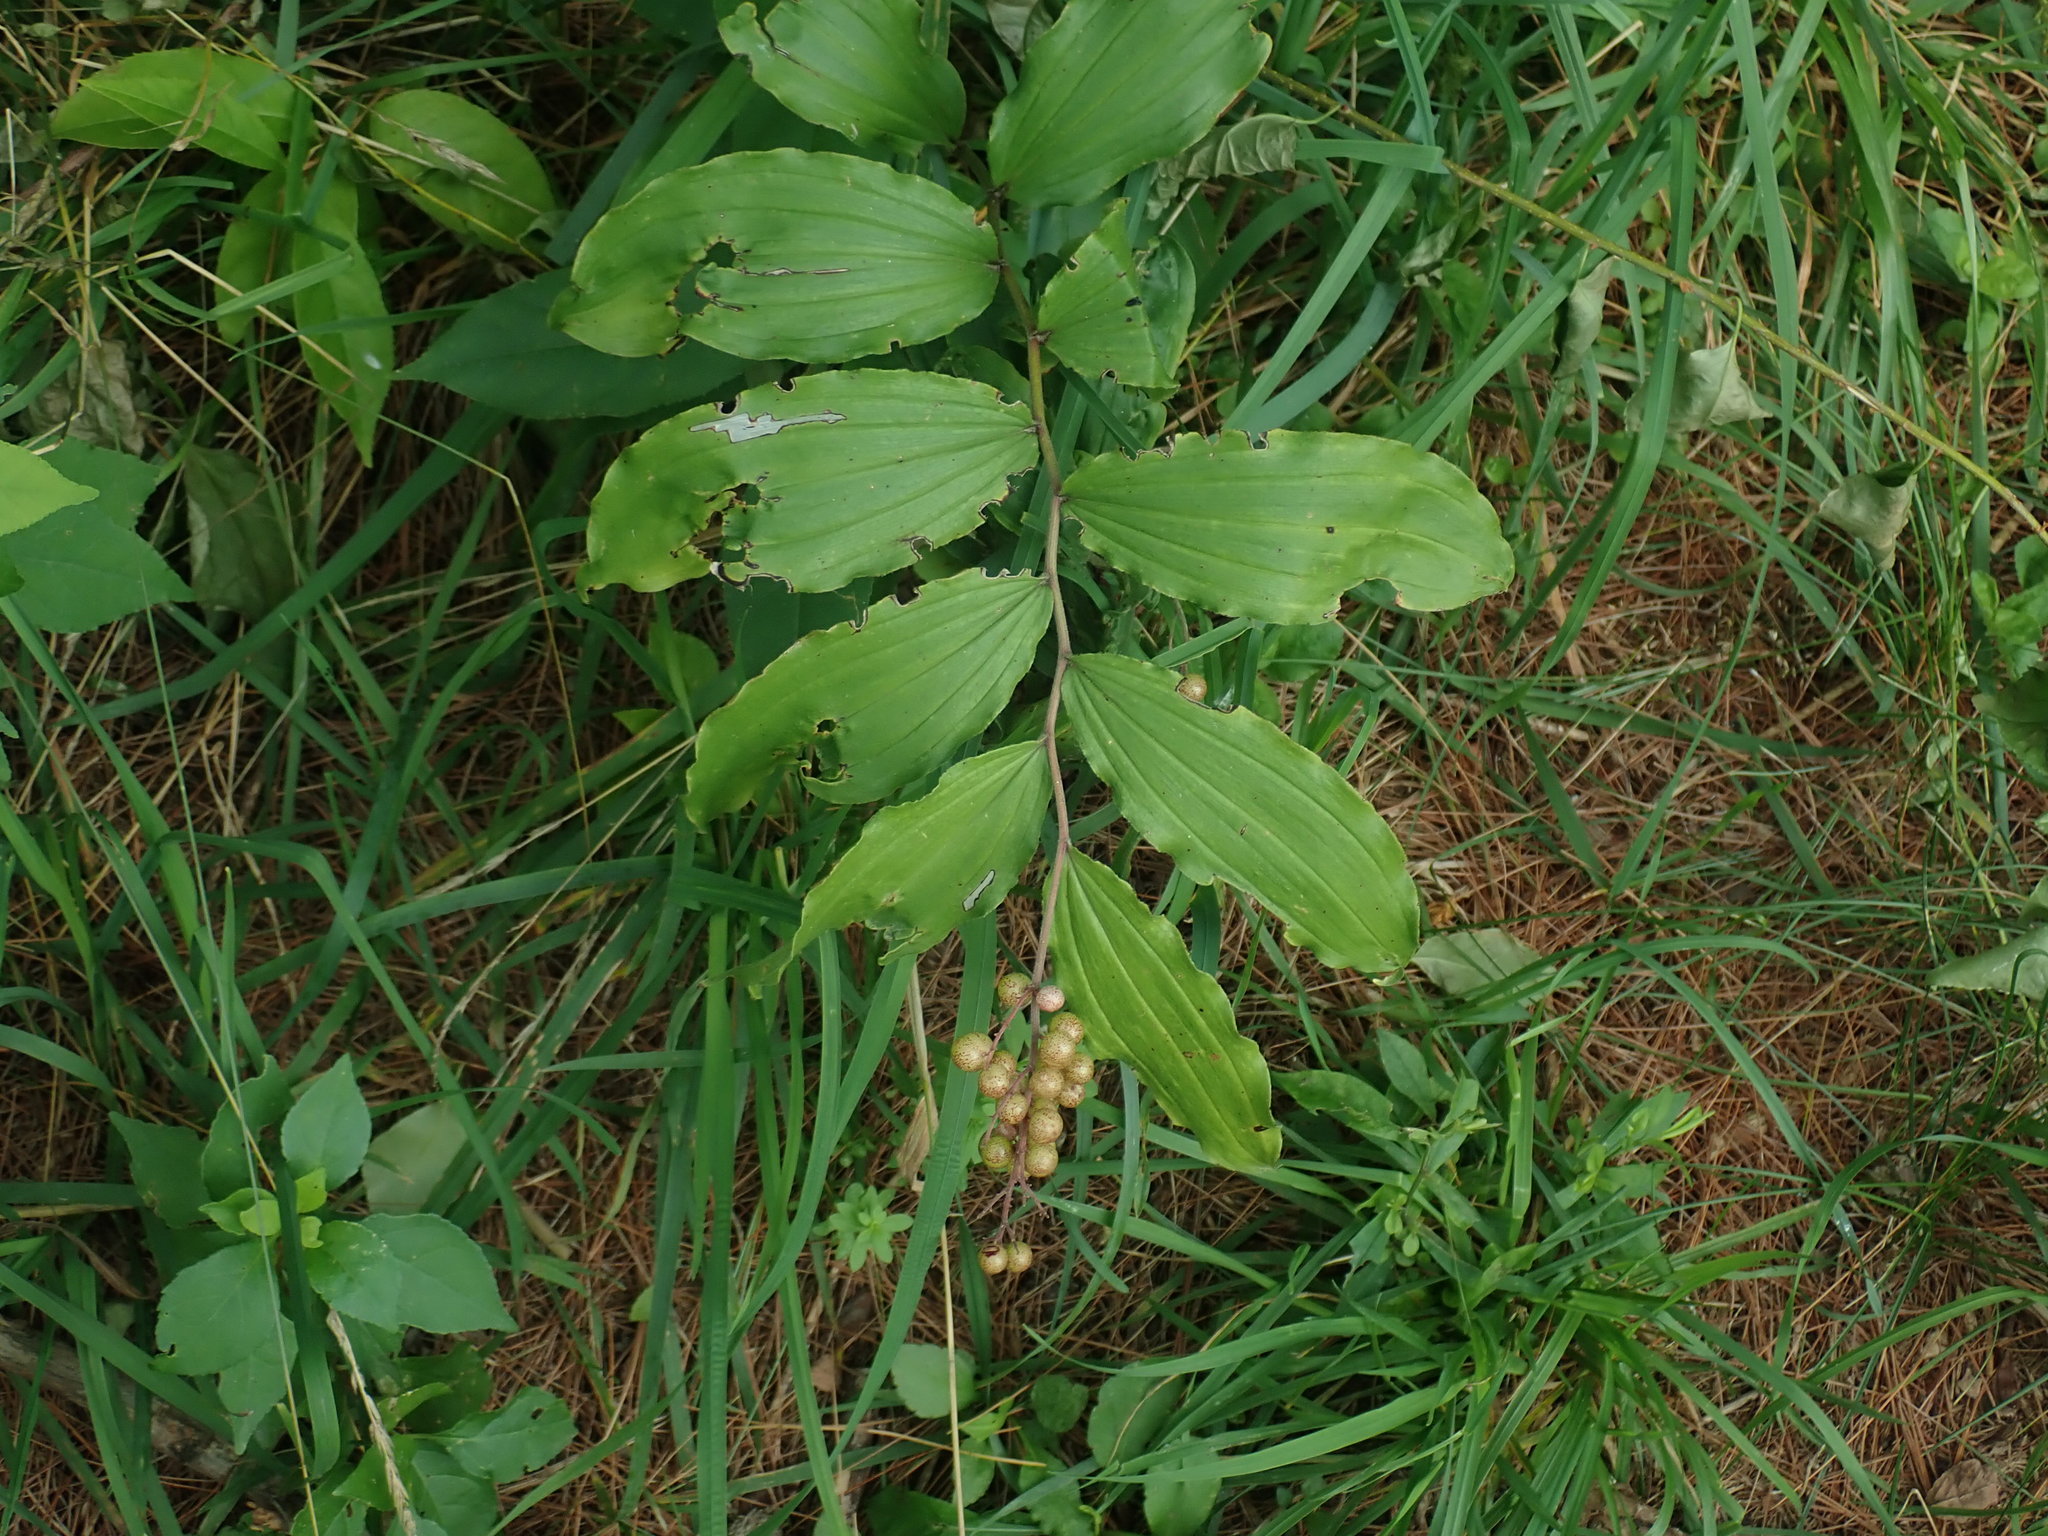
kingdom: Plantae
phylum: Tracheophyta
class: Liliopsida
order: Asparagales
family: Asparagaceae
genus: Maianthemum
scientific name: Maianthemum racemosum
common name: False spikenard
